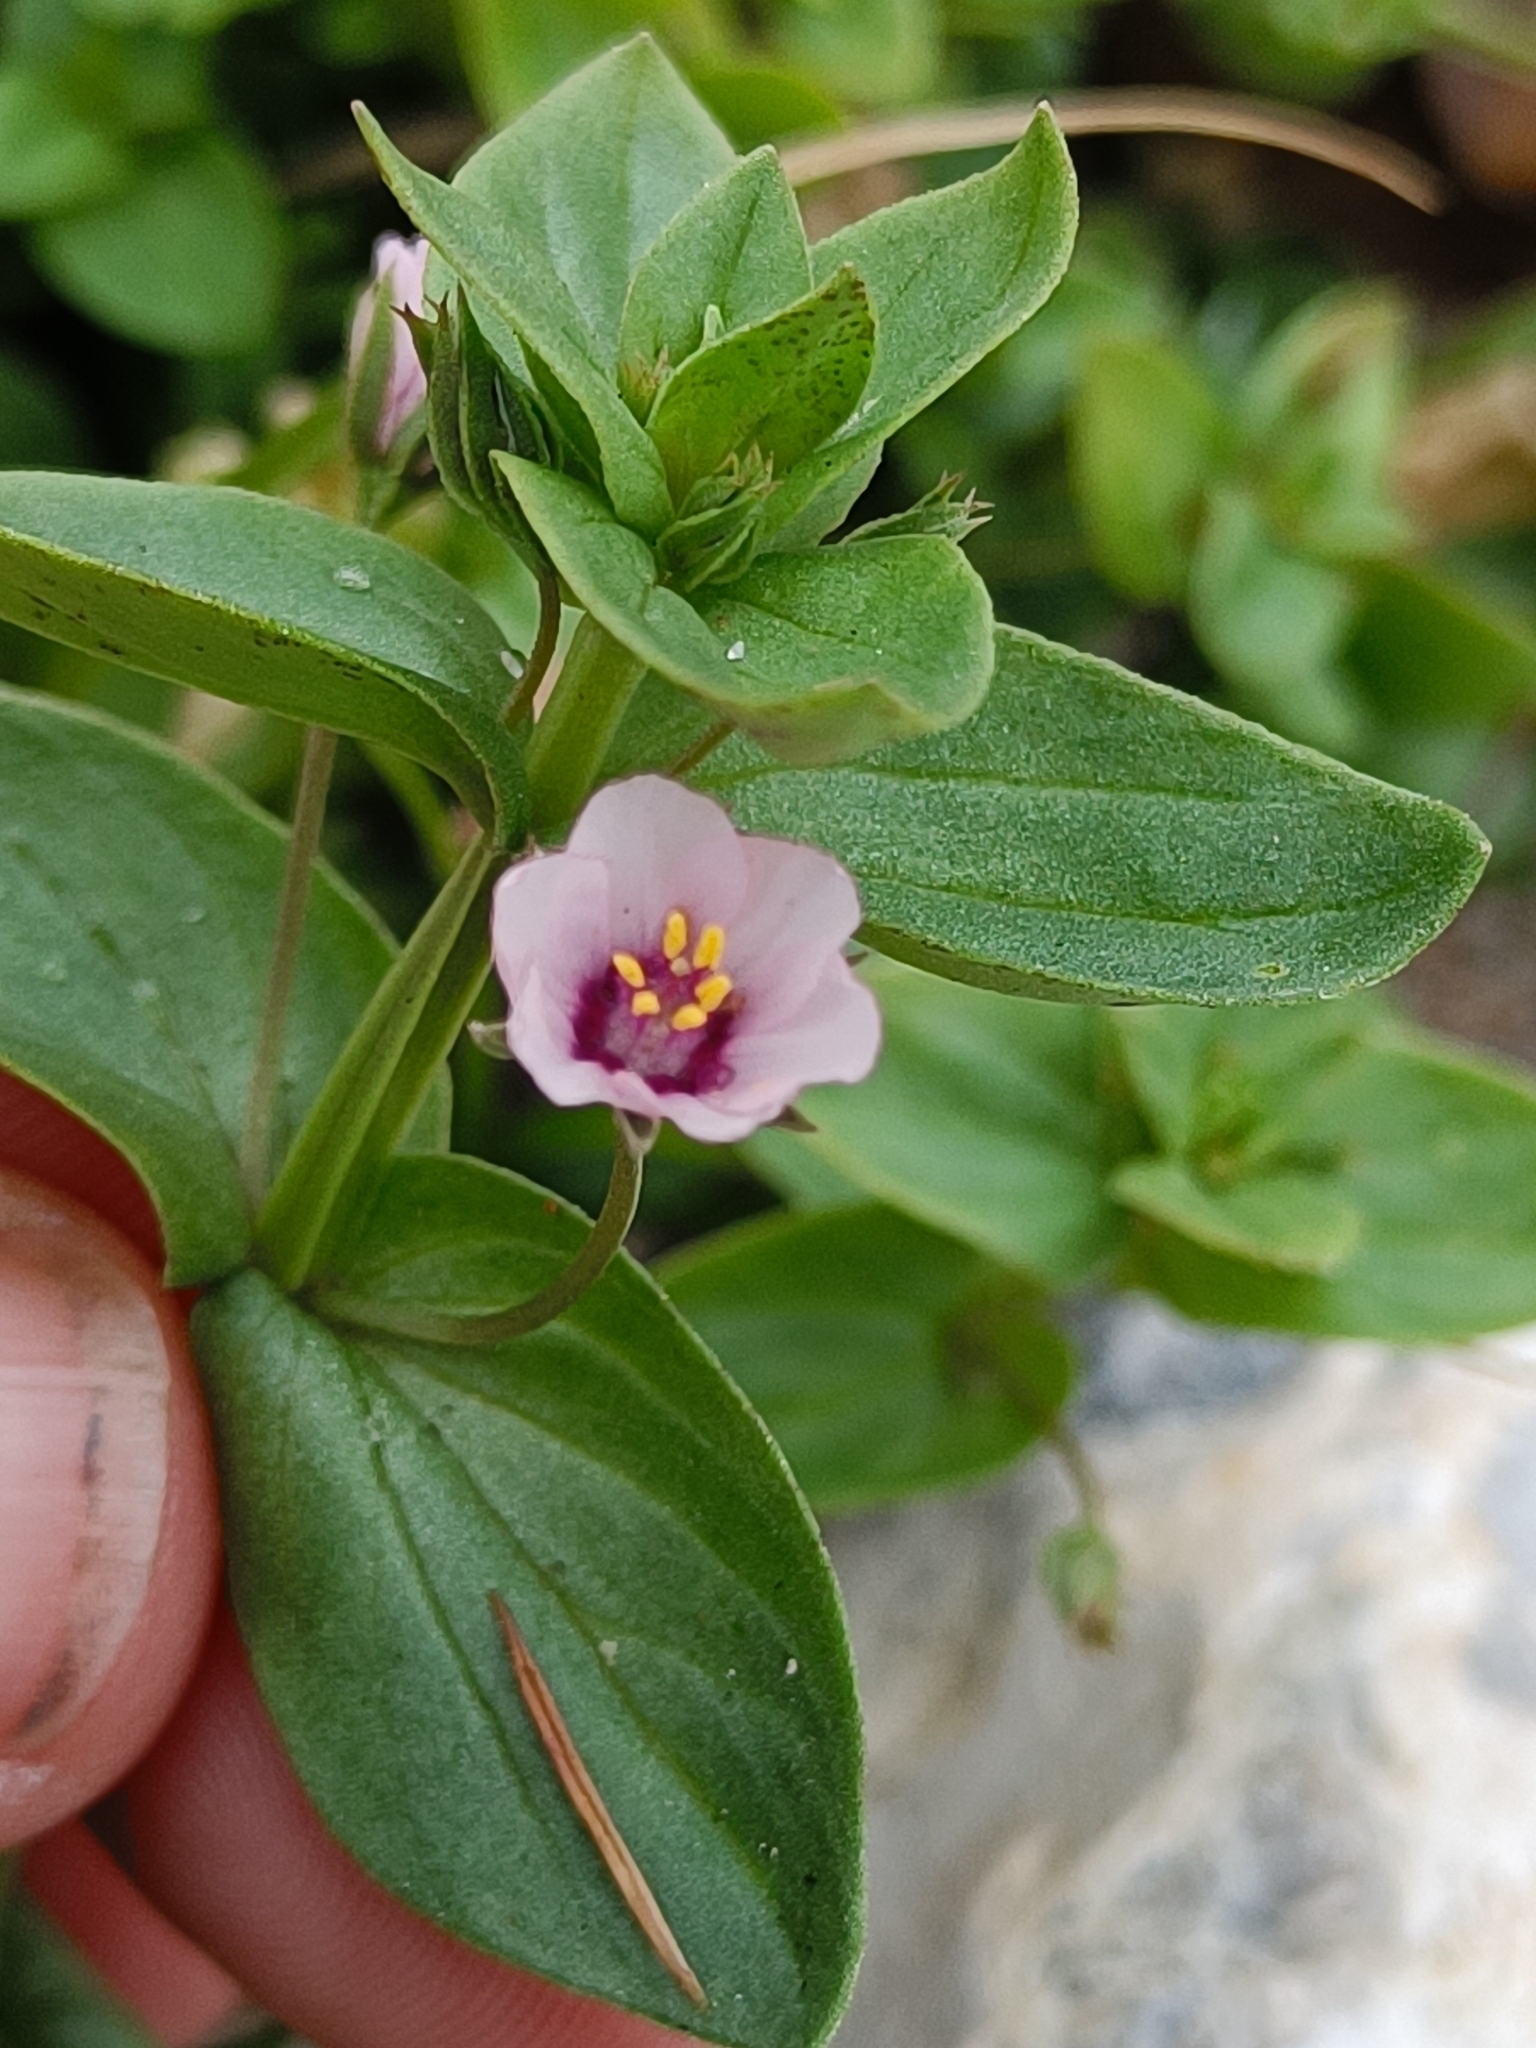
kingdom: Plantae
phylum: Tracheophyta
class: Magnoliopsida
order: Ericales
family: Primulaceae
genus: Lysimachia
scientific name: Lysimachia
